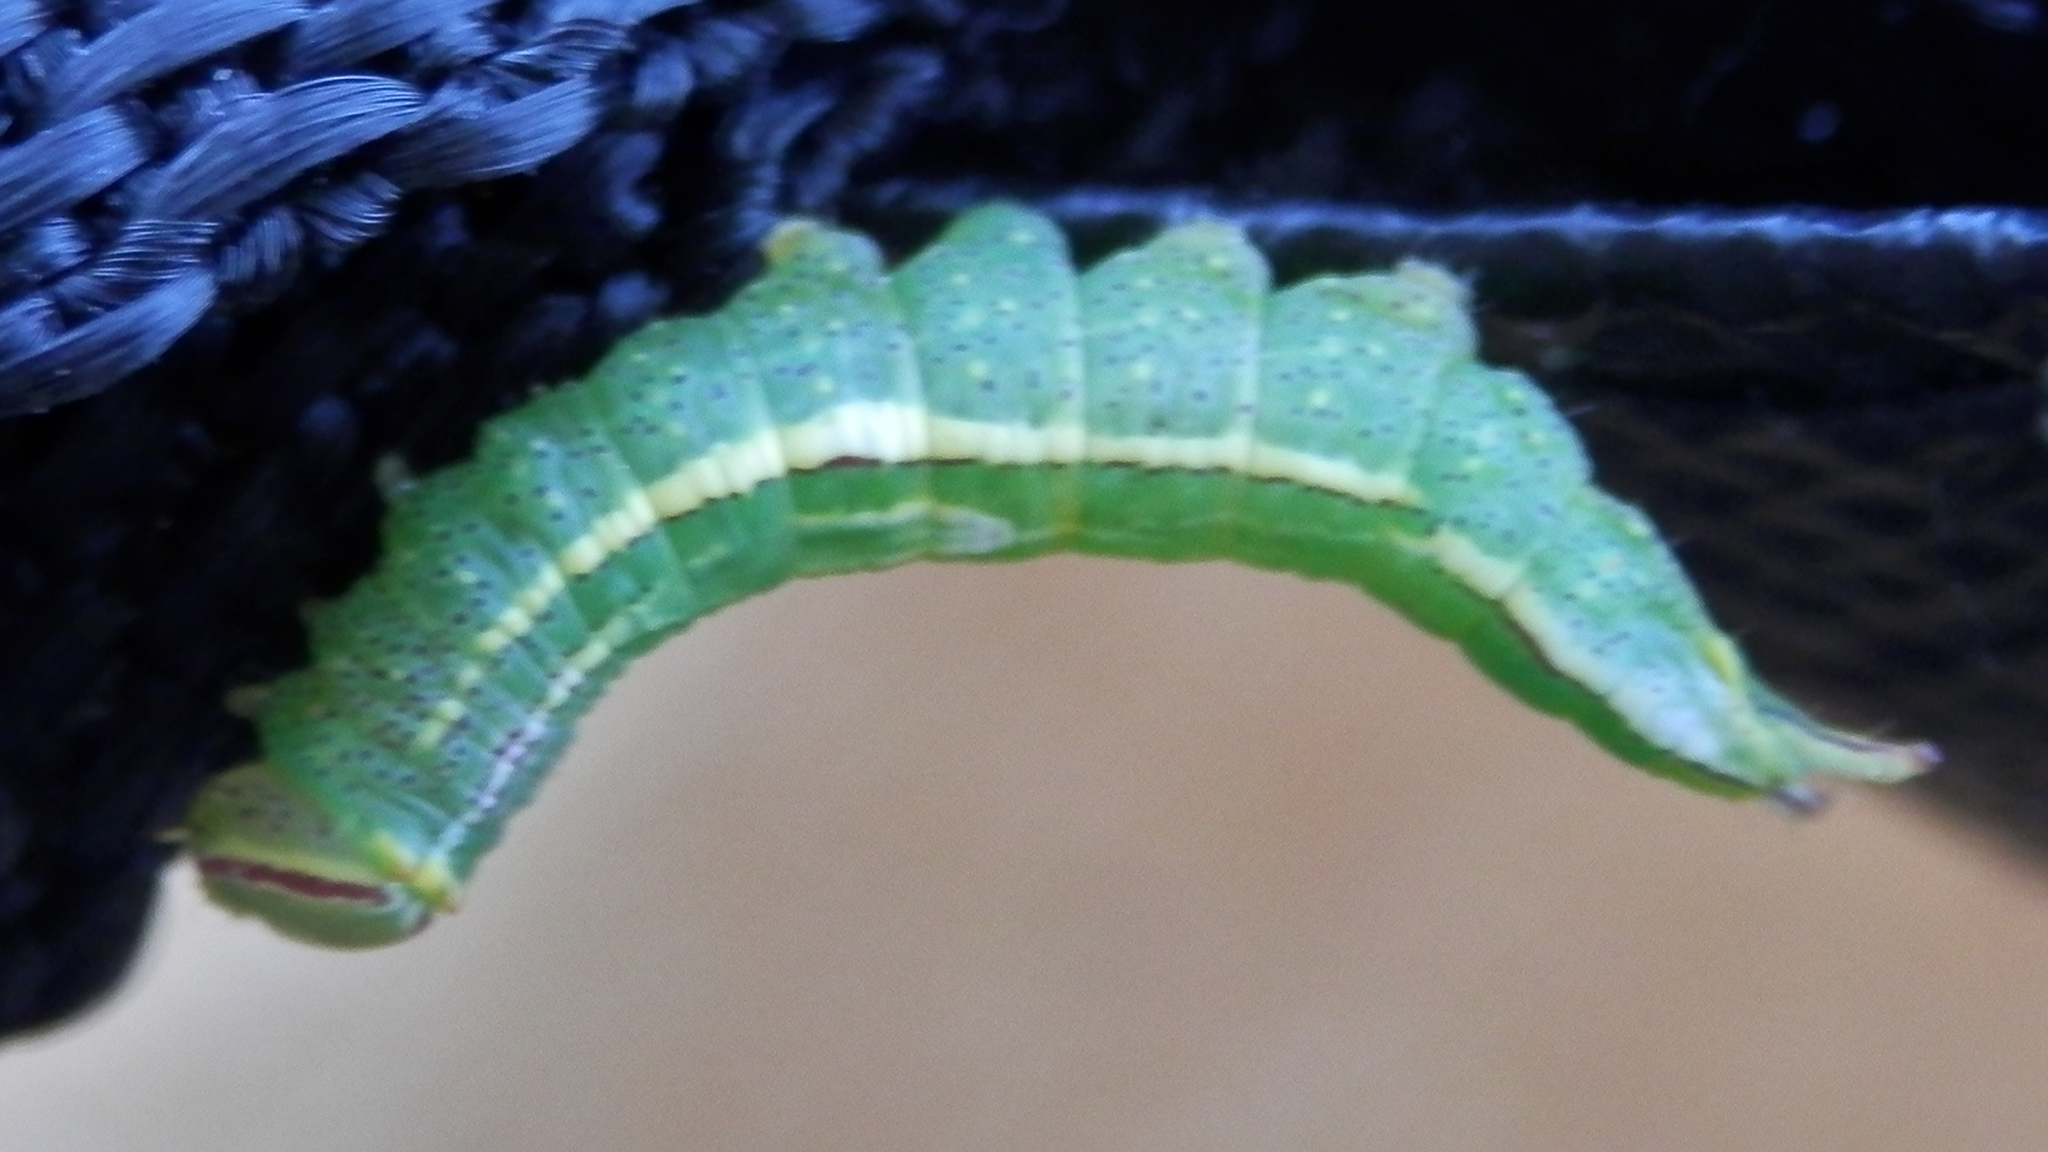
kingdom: Animalia
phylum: Arthropoda
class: Insecta
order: Lepidoptera
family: Notodontidae
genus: Disphragis
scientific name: Disphragis Cecrita guttivitta
